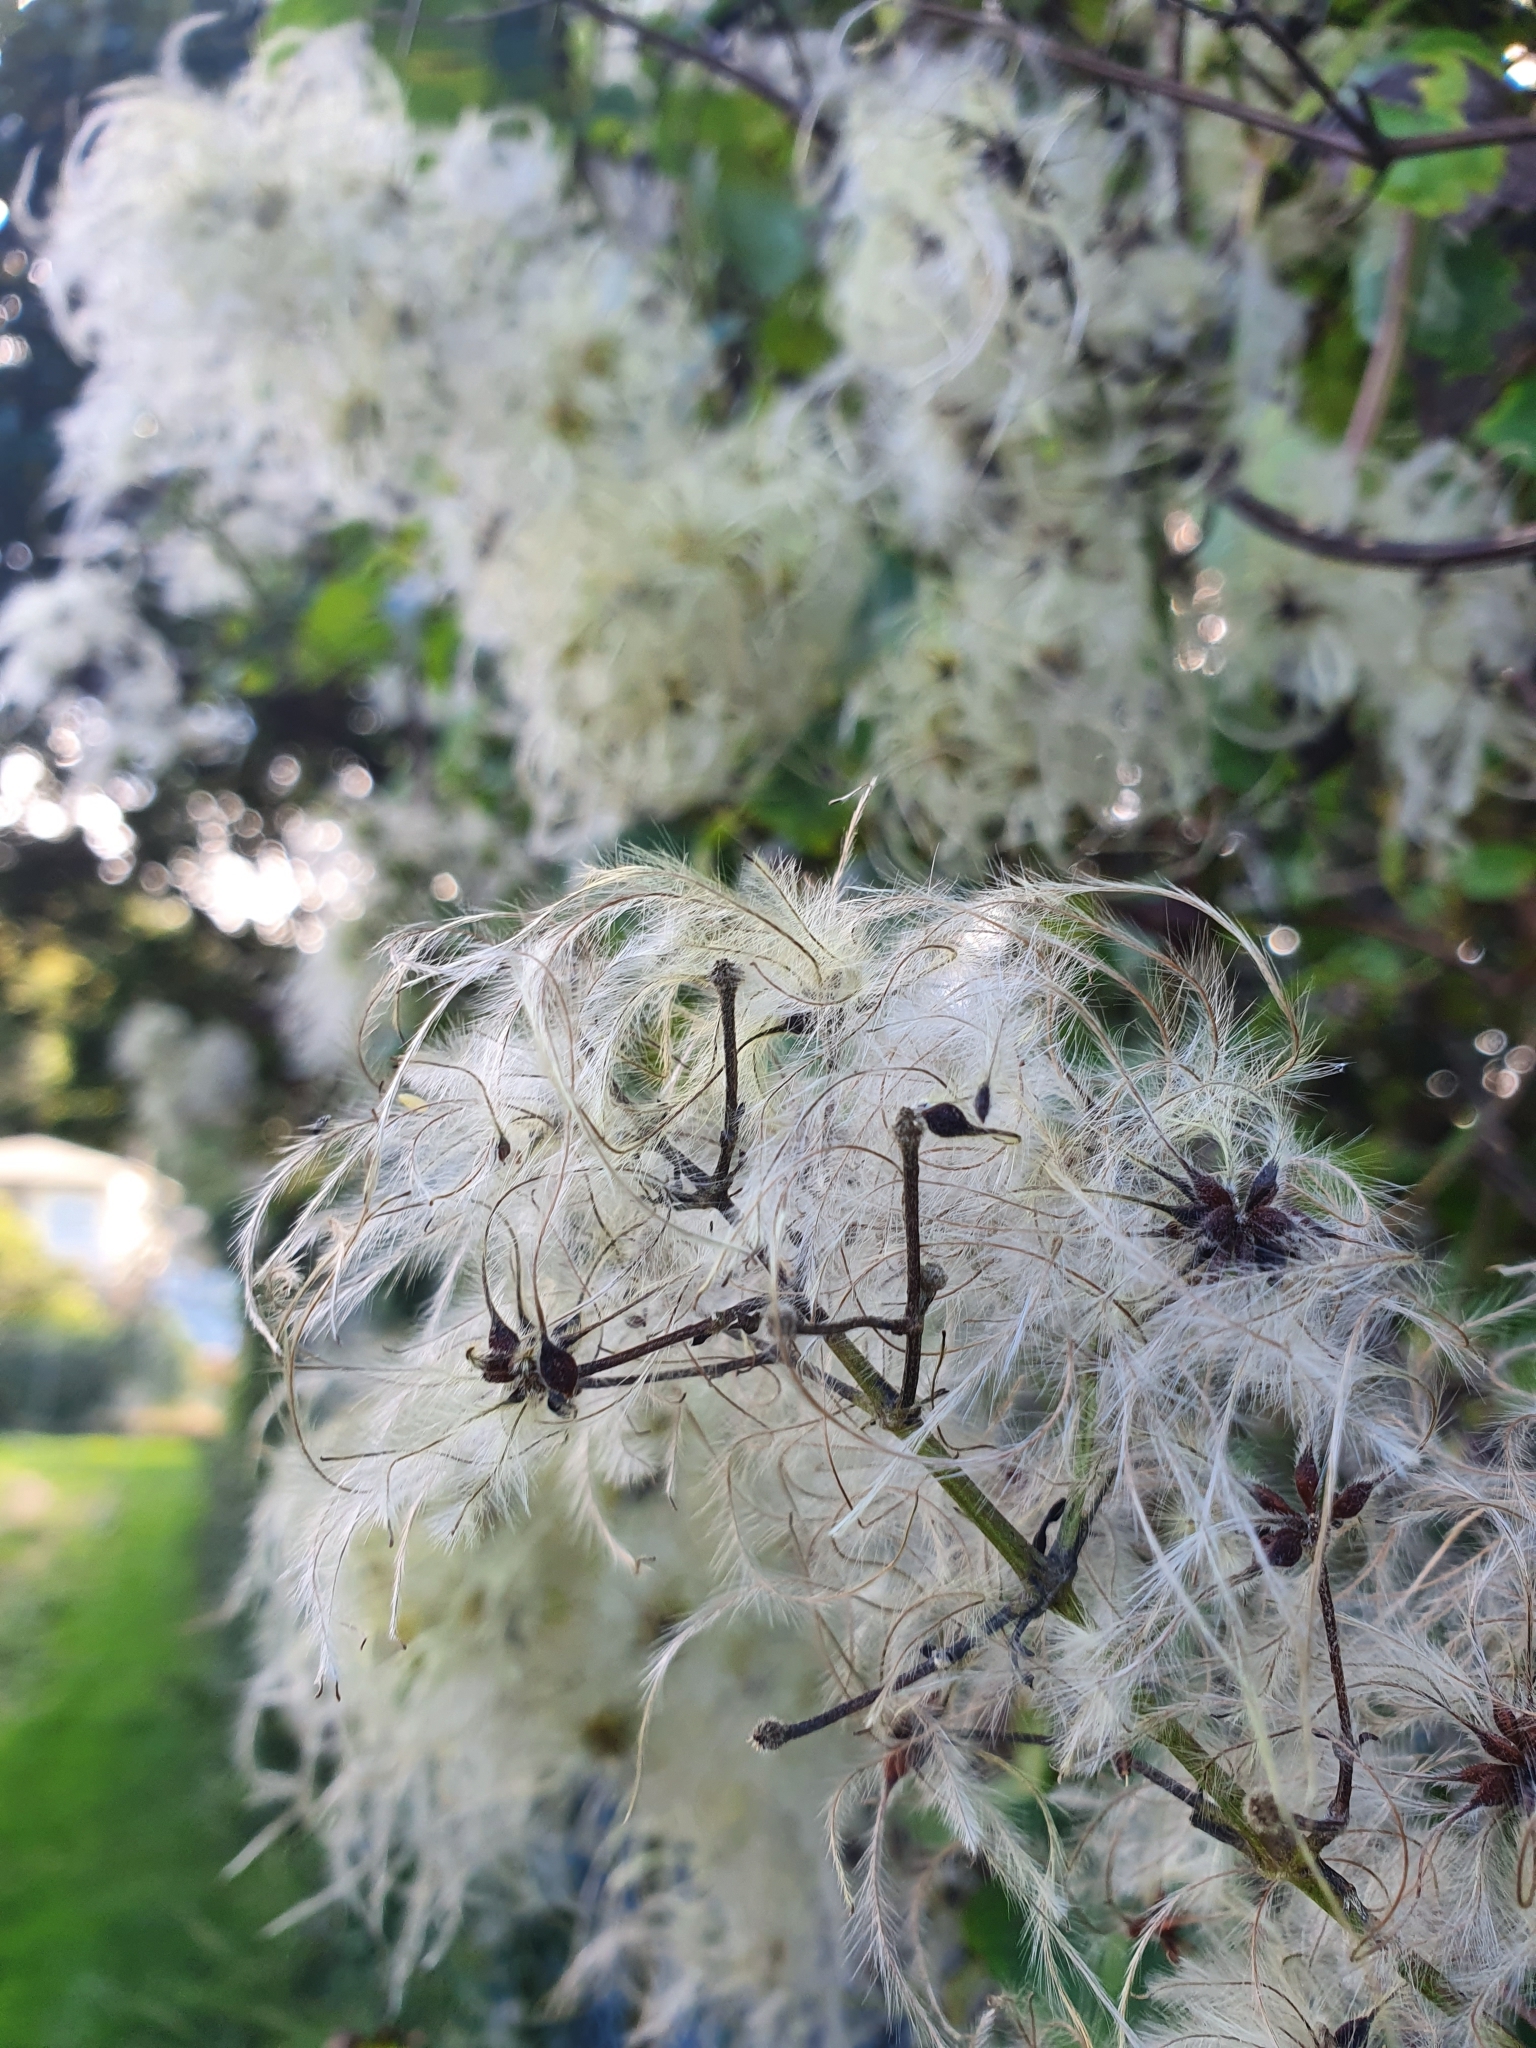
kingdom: Plantae
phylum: Tracheophyta
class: Magnoliopsida
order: Ranunculales
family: Ranunculaceae
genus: Clematis
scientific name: Clematis vitalba
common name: Evergreen clematis
